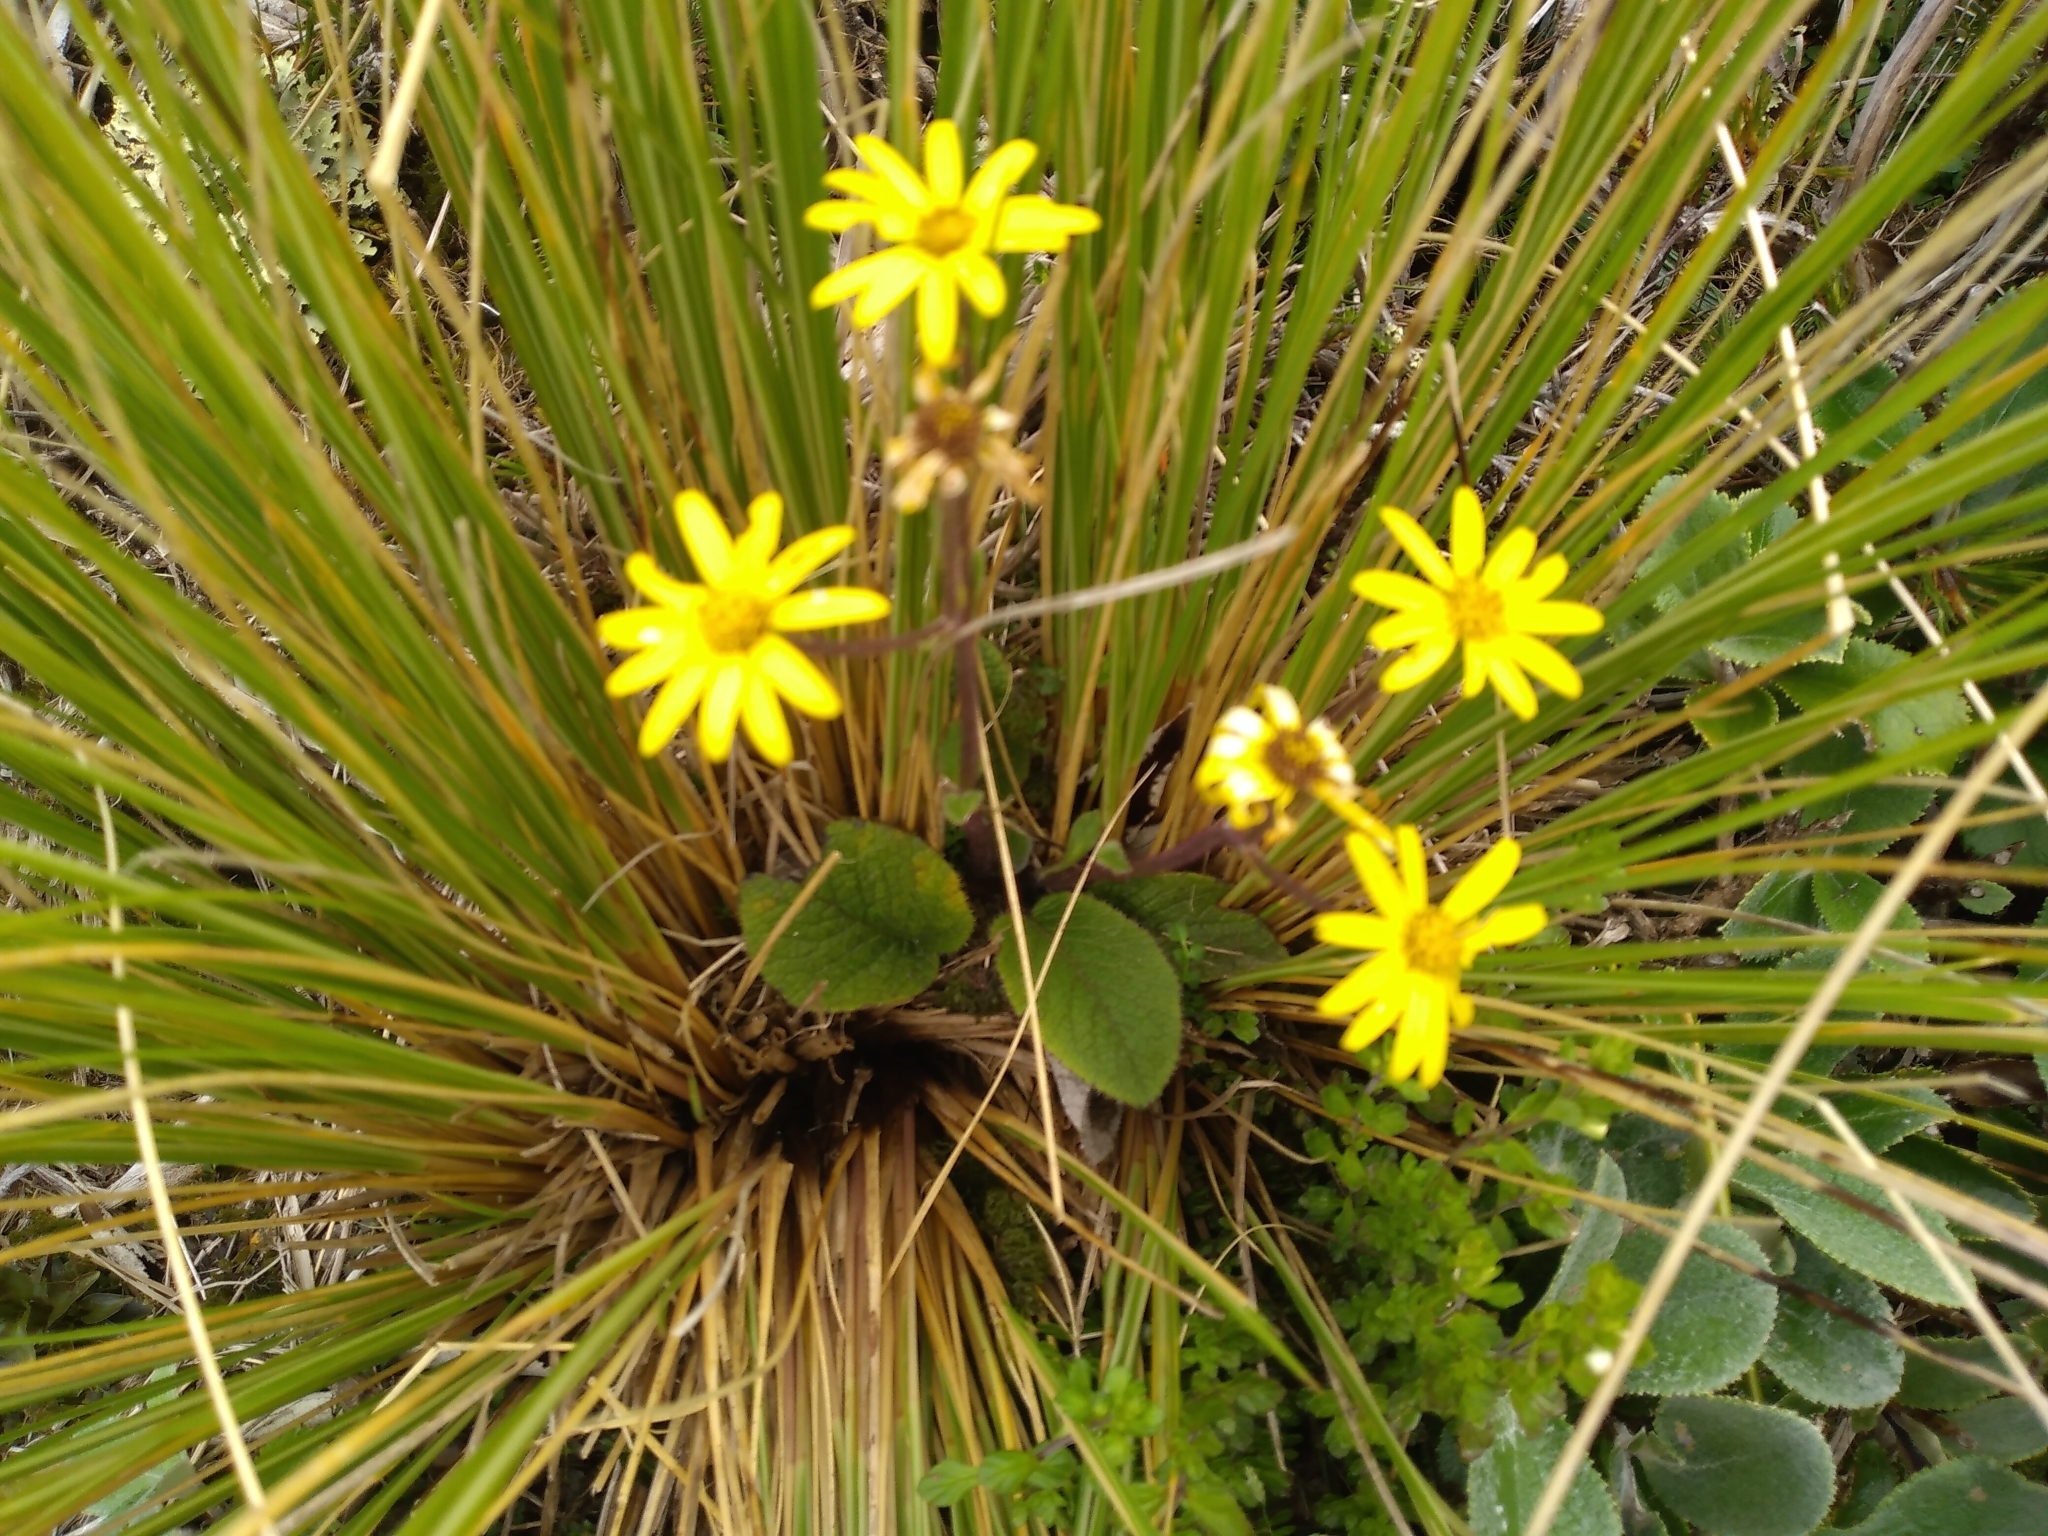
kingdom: Plantae
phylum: Tracheophyta
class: Magnoliopsida
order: Asterales
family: Asteraceae
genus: Brachyglottis
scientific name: Brachyglottis lagopus
